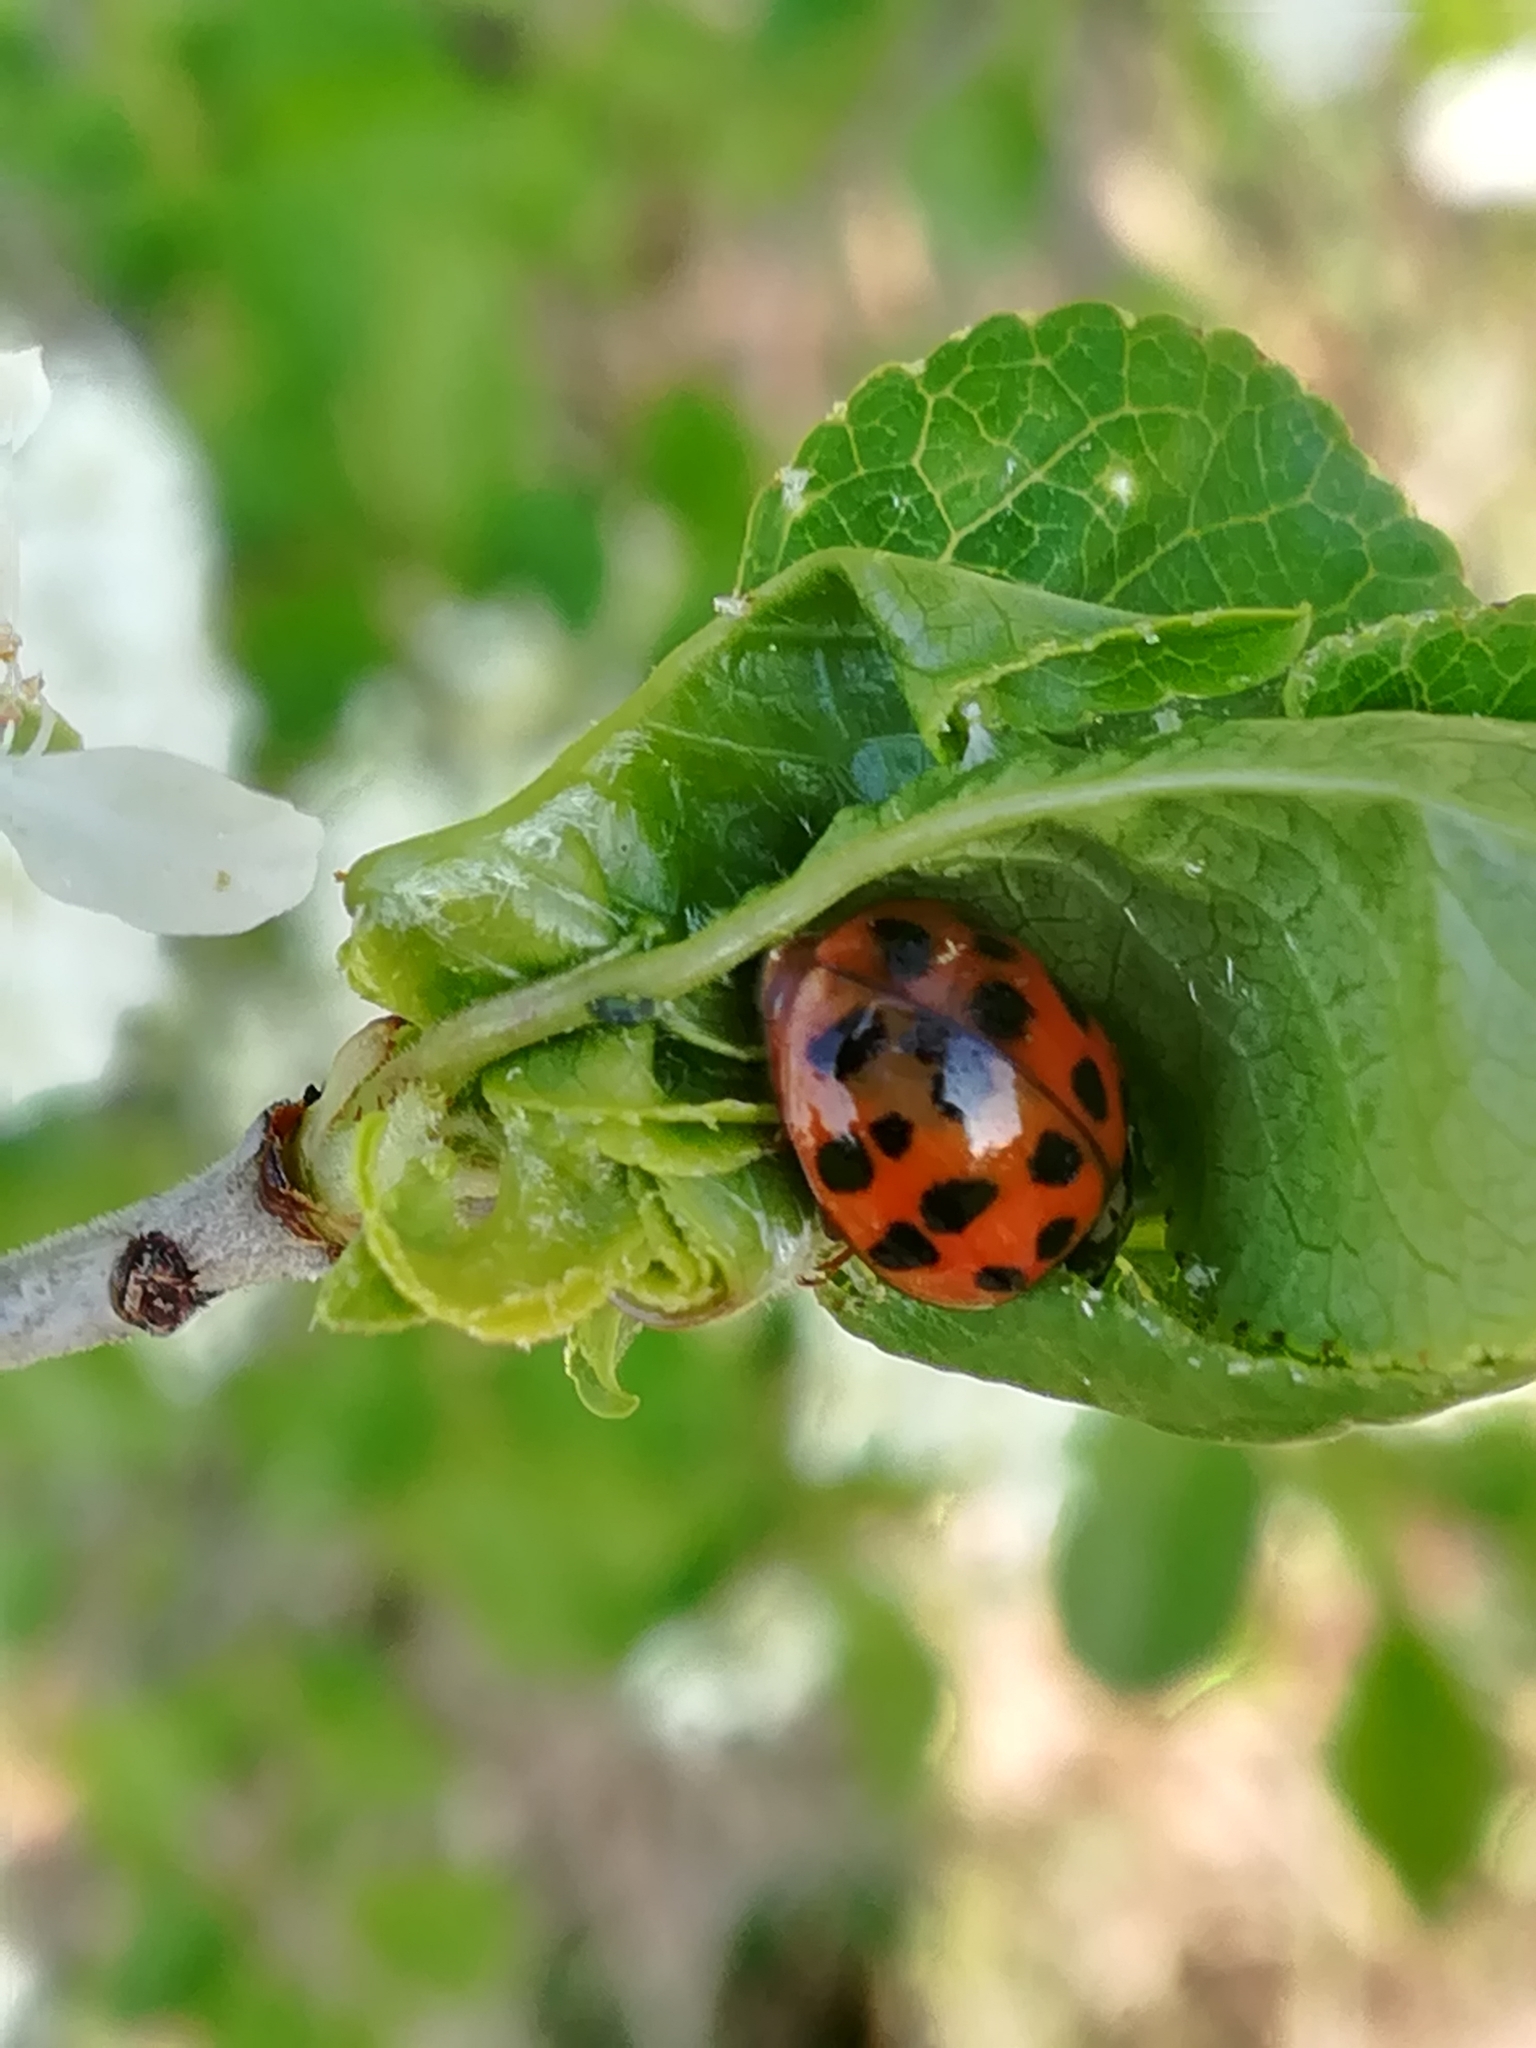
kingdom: Animalia
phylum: Arthropoda
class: Insecta
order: Coleoptera
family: Coccinellidae
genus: Harmonia
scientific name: Harmonia axyridis
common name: Harlequin ladybird
